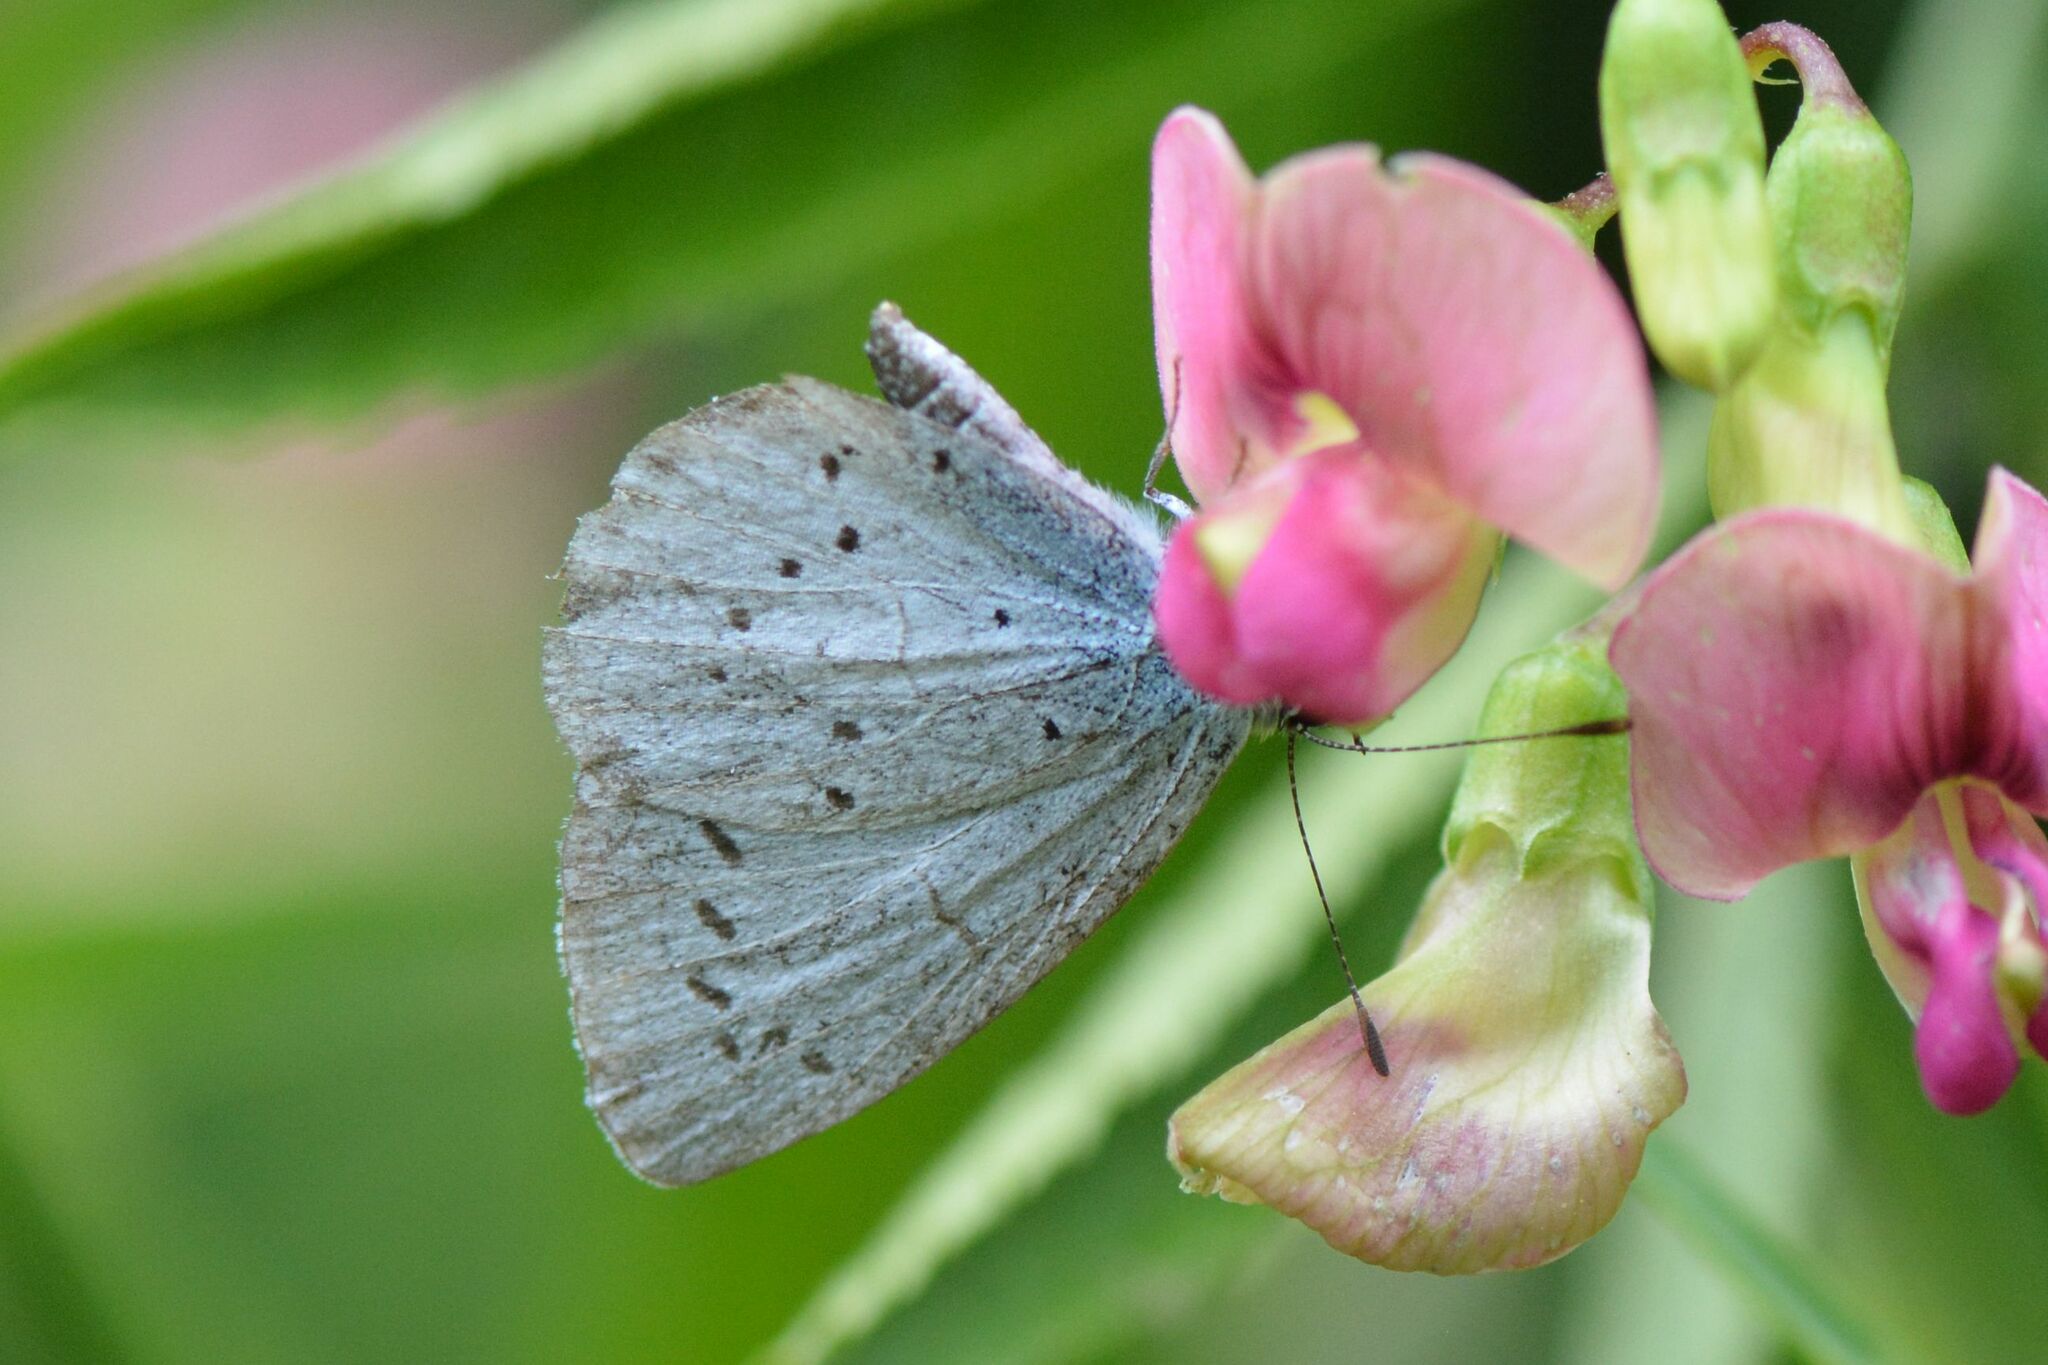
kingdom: Animalia
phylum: Arthropoda
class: Insecta
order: Lepidoptera
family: Lycaenidae
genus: Celastrina
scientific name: Celastrina argiolus
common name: Holly blue
